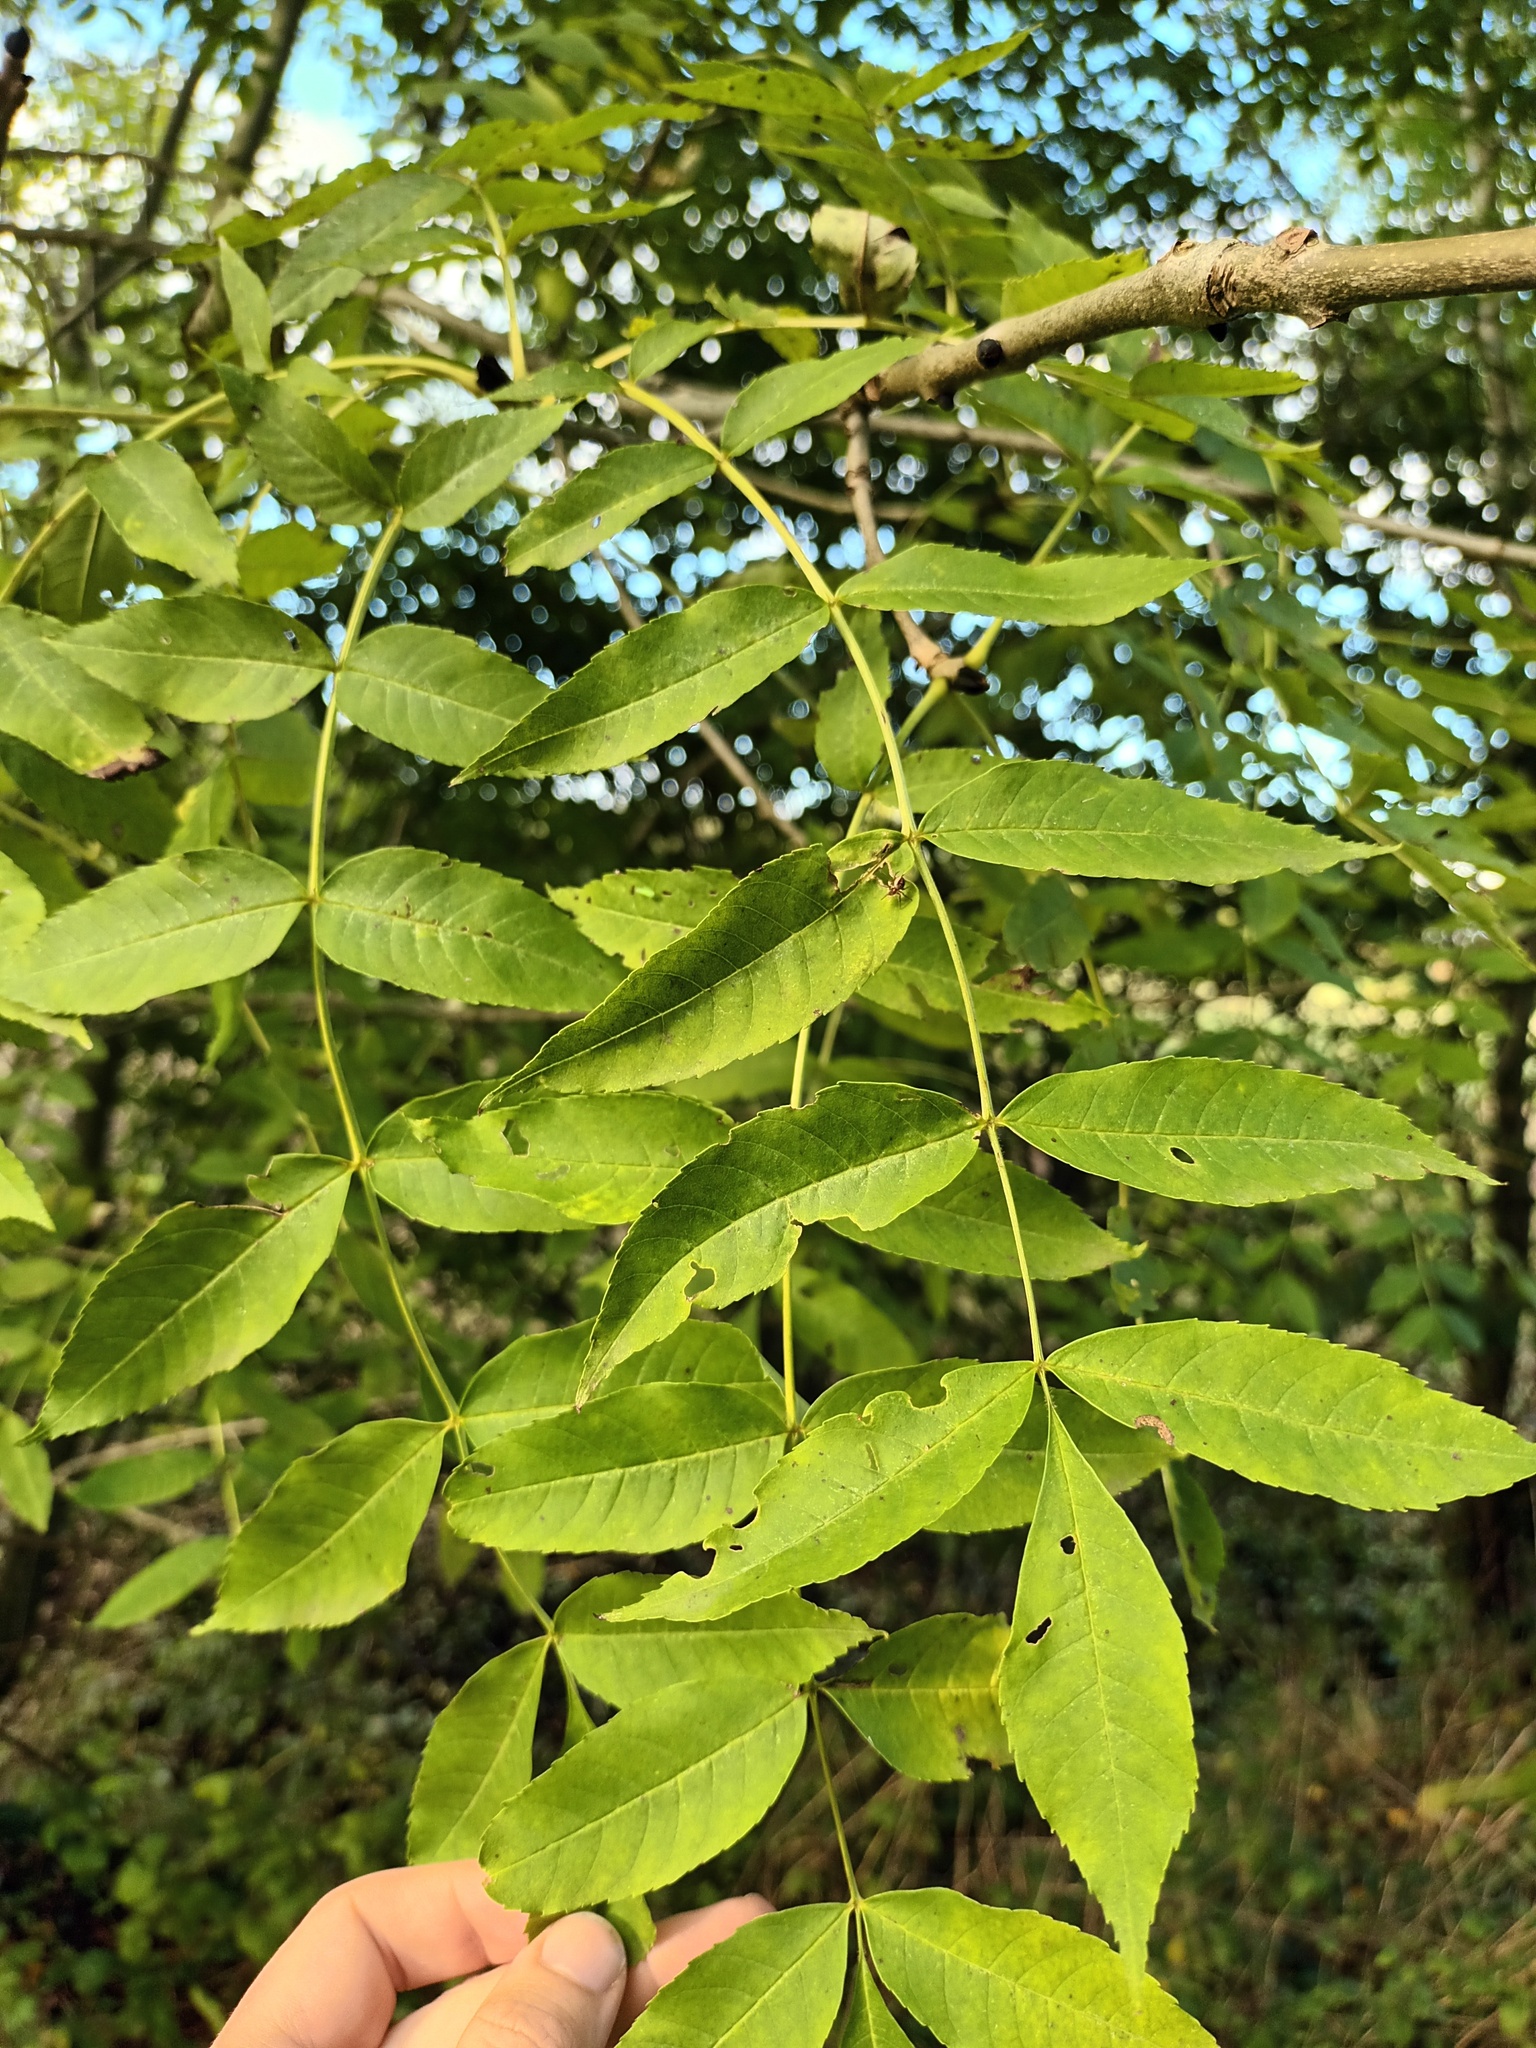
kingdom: Plantae
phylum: Tracheophyta
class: Magnoliopsida
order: Lamiales
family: Oleaceae
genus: Fraxinus
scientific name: Fraxinus excelsior
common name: European ash
